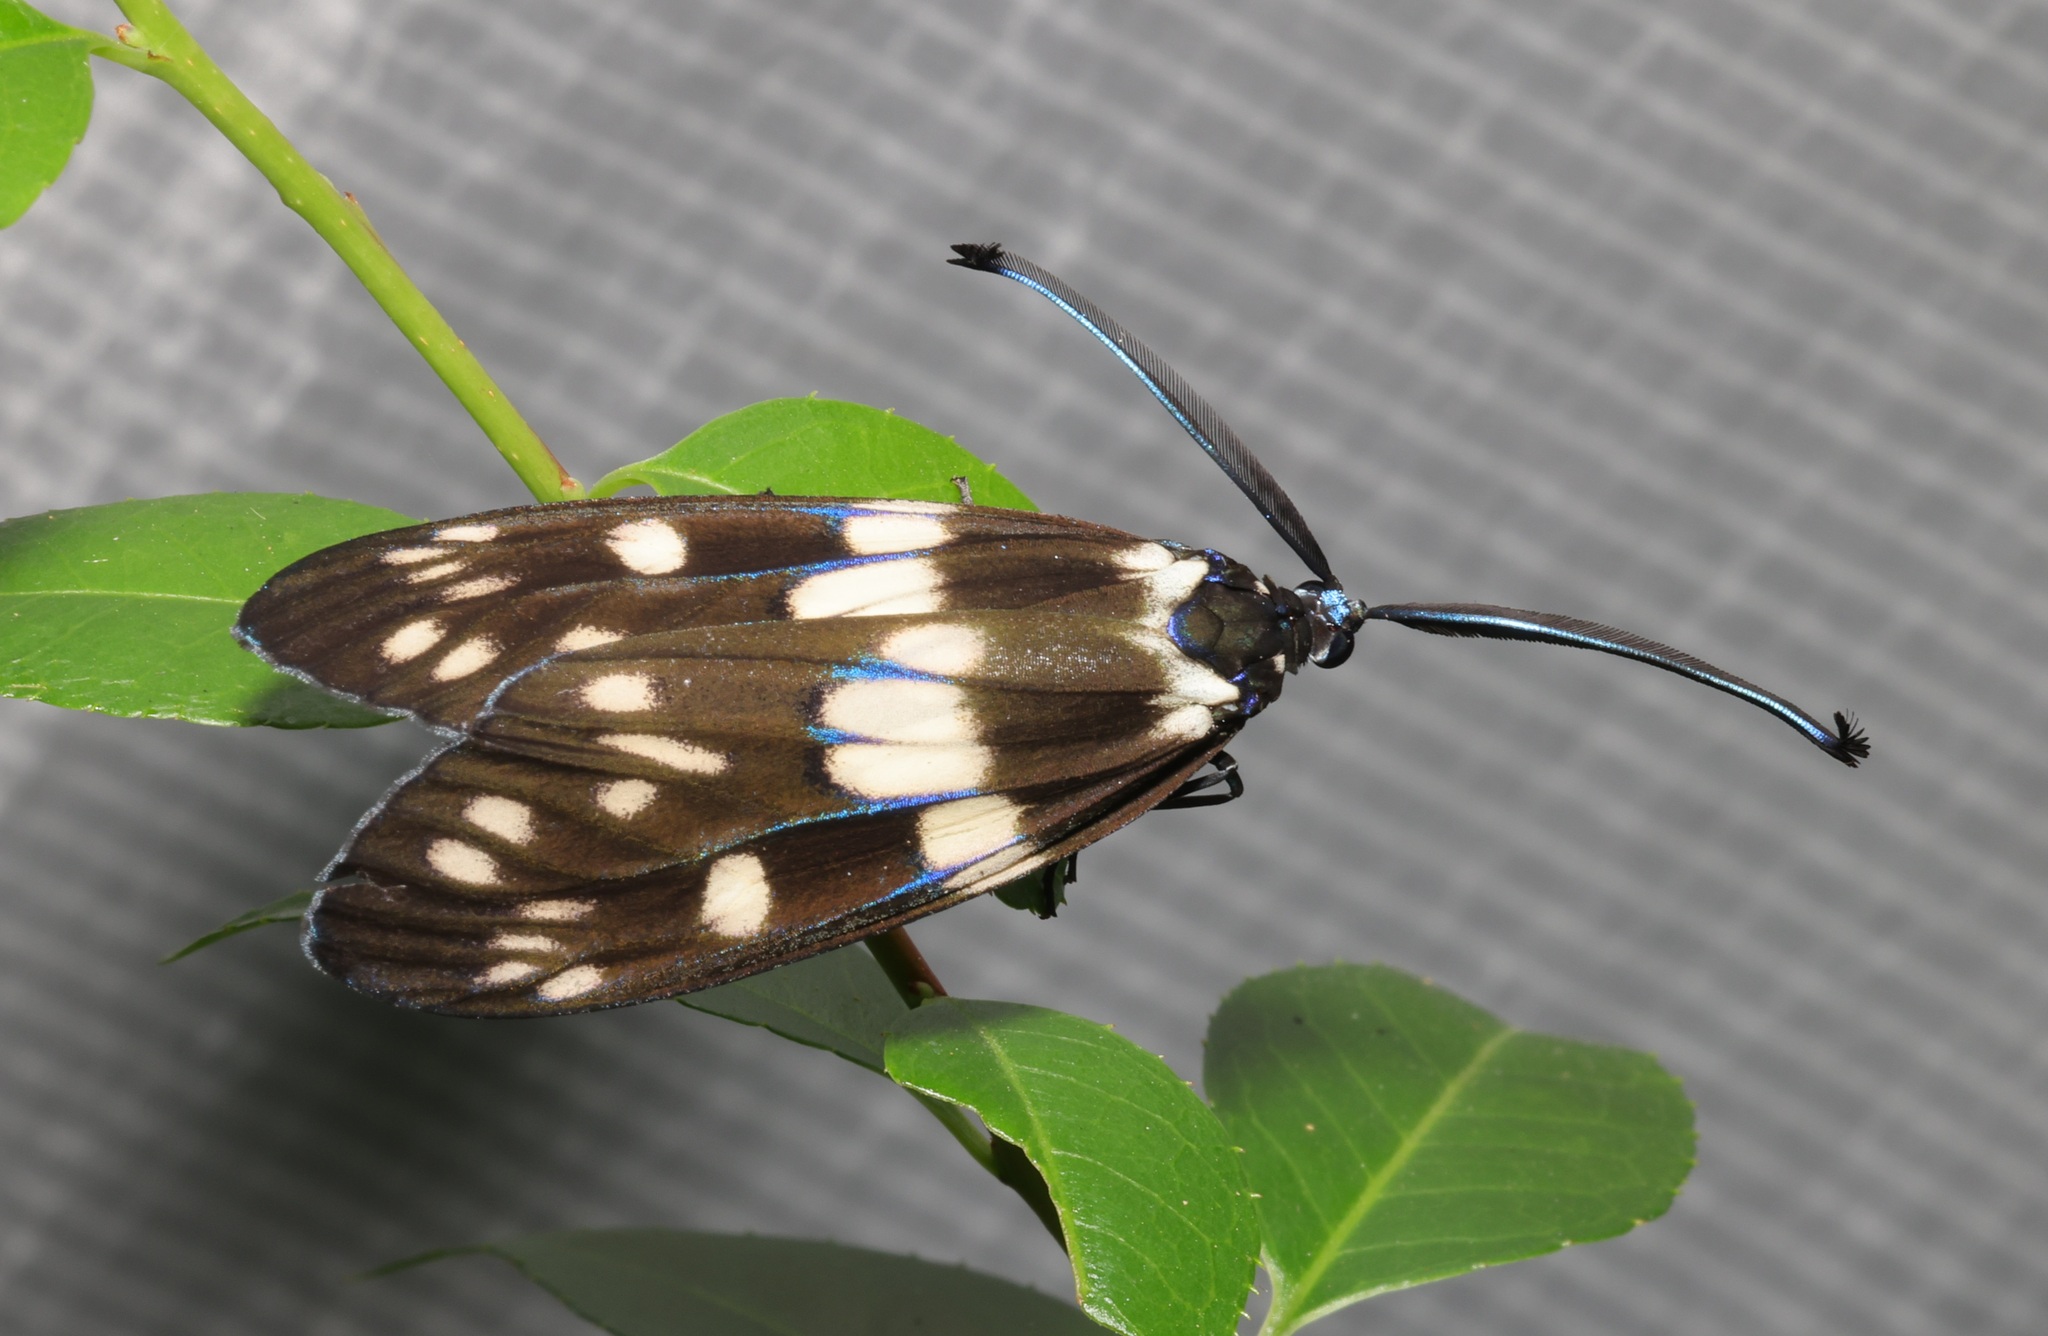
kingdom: Animalia
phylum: Arthropoda
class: Insecta
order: Lepidoptera
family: Zygaenidae
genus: Eterusia
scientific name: Eterusia aedea
